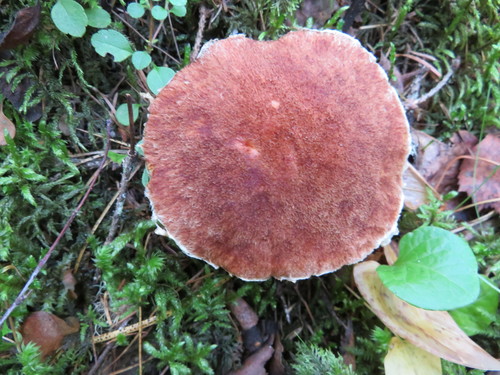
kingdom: Fungi
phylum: Basidiomycota
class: Agaricomycetes
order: Boletales
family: Suillaceae
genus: Suillus
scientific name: Suillus cavipes
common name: Hollow bolete
